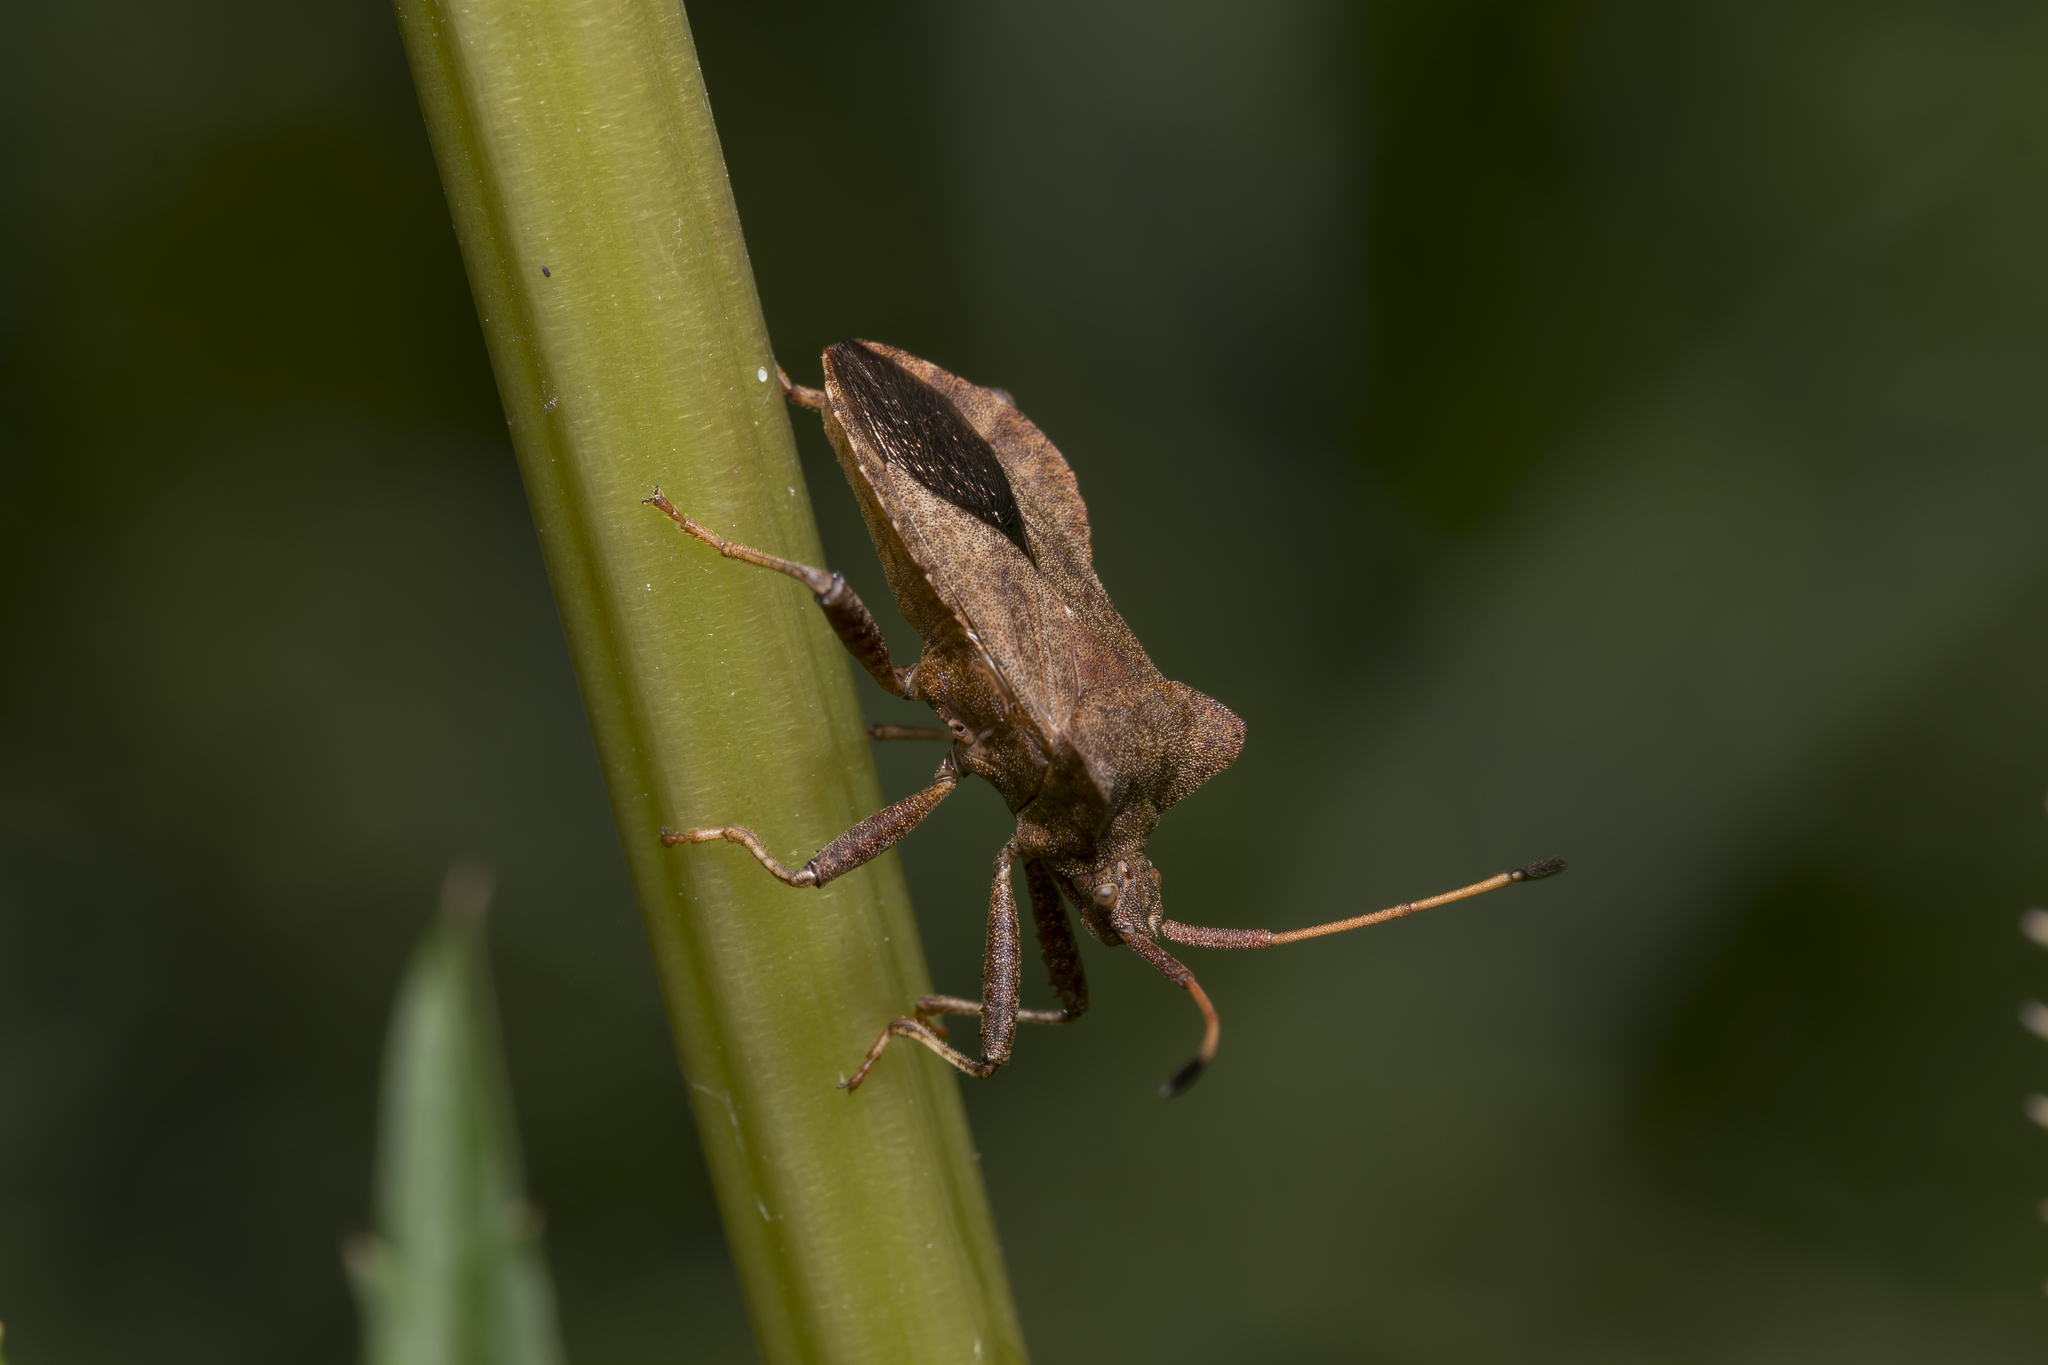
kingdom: Animalia
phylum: Arthropoda
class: Insecta
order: Hemiptera
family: Coreidae
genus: Coreus
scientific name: Coreus marginatus
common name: Dock bug
